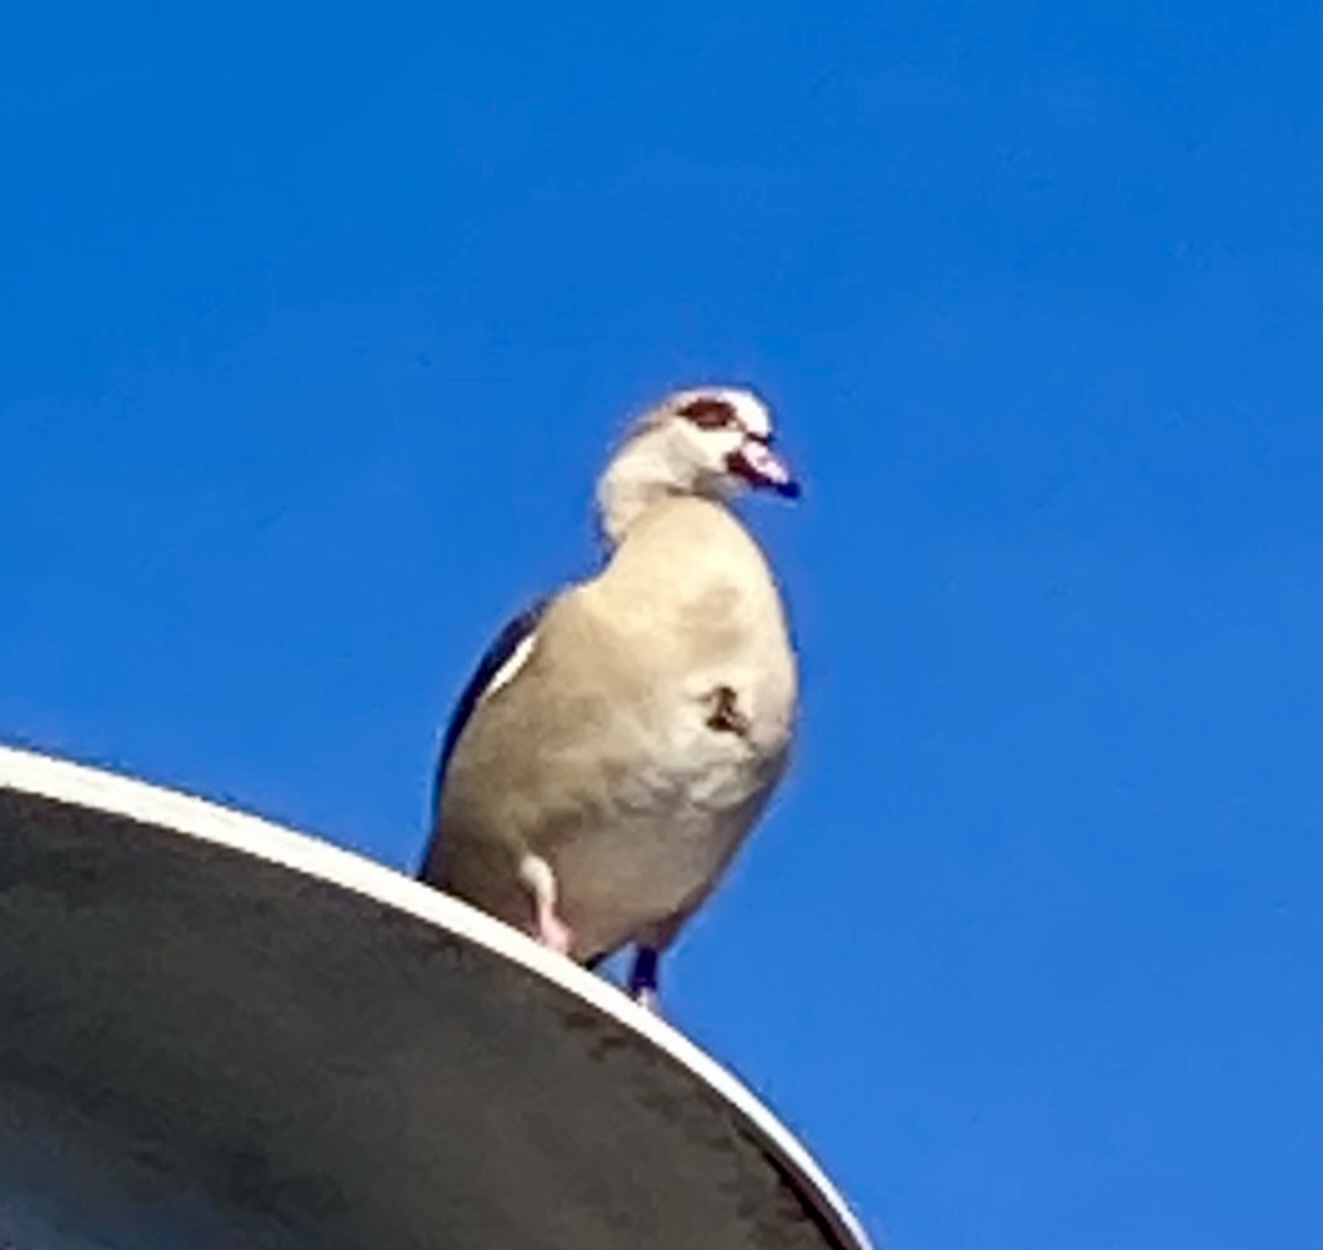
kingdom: Animalia
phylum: Chordata
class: Aves
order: Anseriformes
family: Anatidae
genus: Alopochen
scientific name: Alopochen aegyptiaca
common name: Egyptian goose
